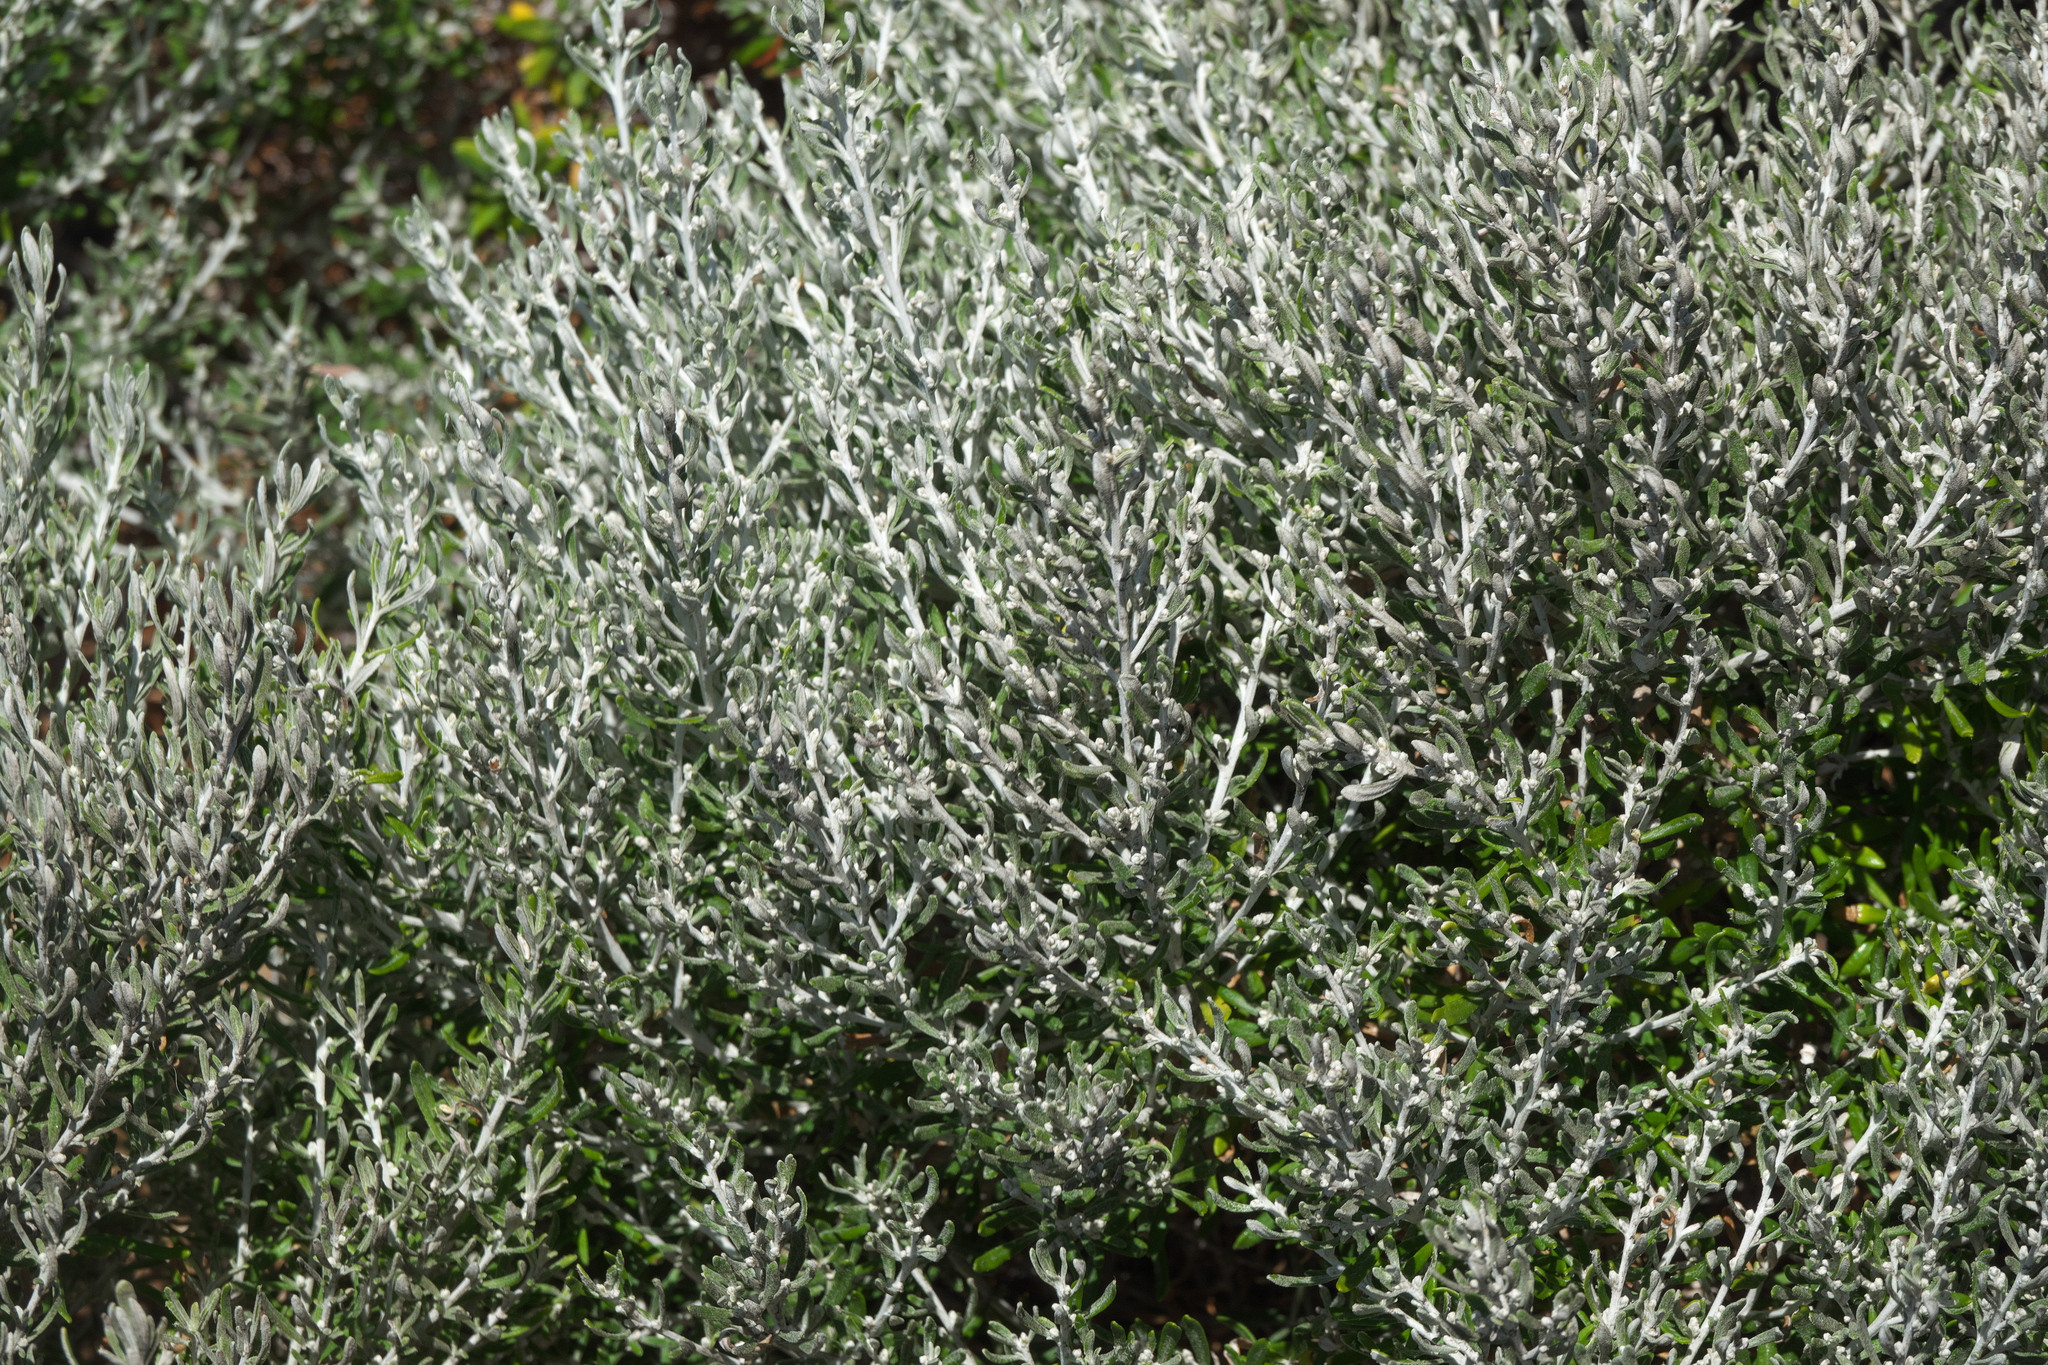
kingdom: Plantae
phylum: Tracheophyta
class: Magnoliopsida
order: Asterales
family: Asteraceae
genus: Olearia
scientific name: Olearia axillaris
